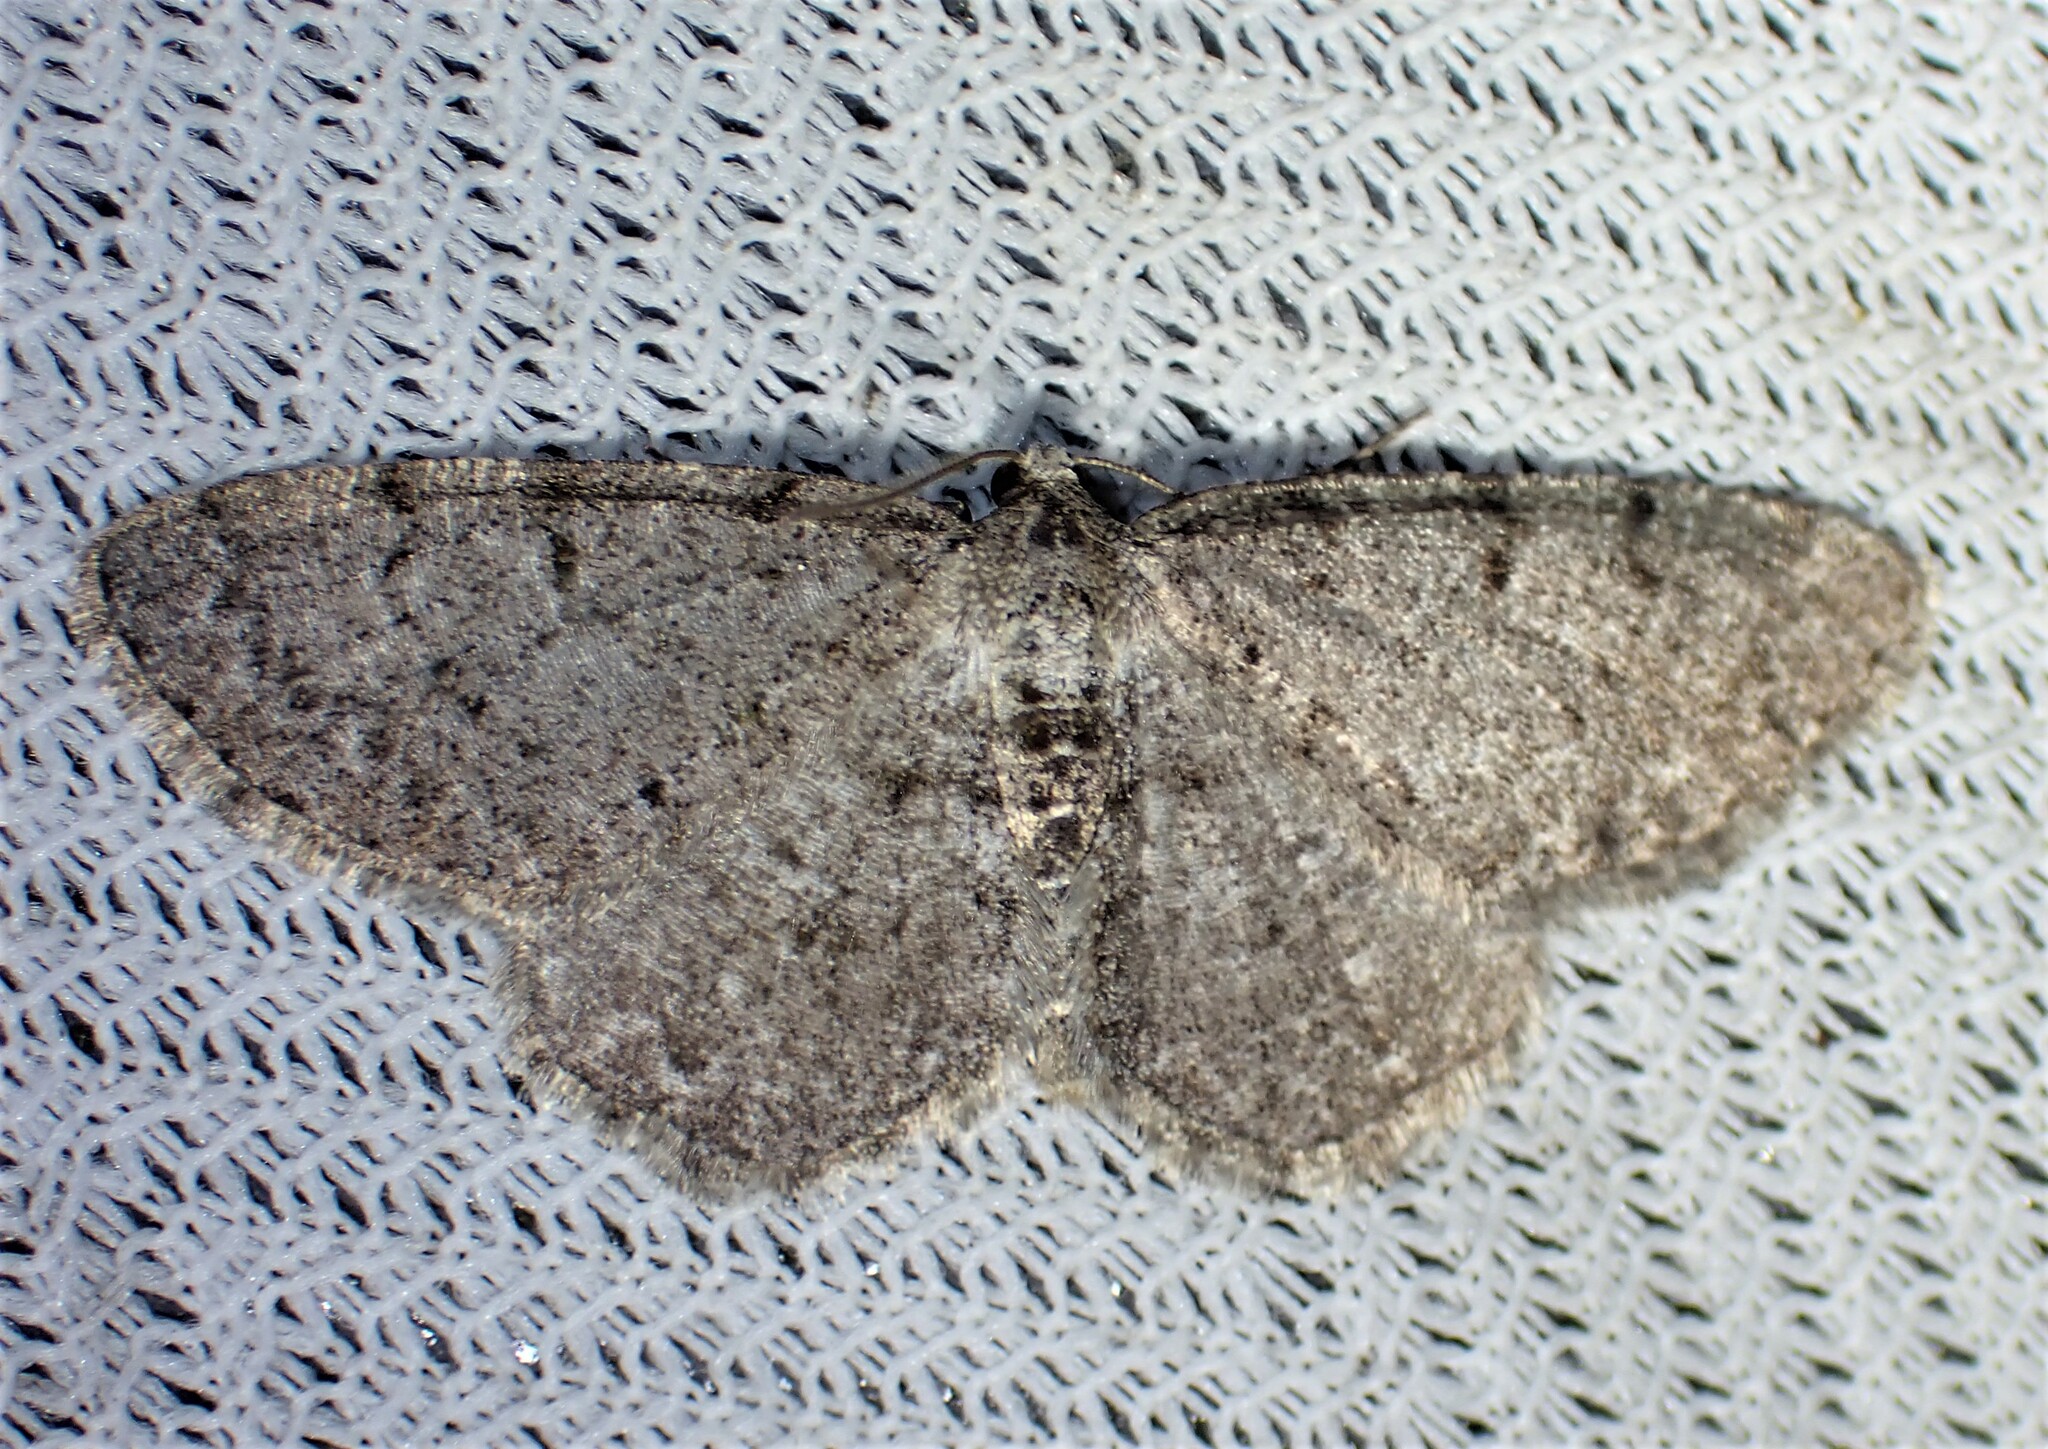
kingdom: Animalia
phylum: Arthropoda
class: Insecta
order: Lepidoptera
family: Geometridae
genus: Aethalura
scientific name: Aethalura intertexta
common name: Four-barred gray
